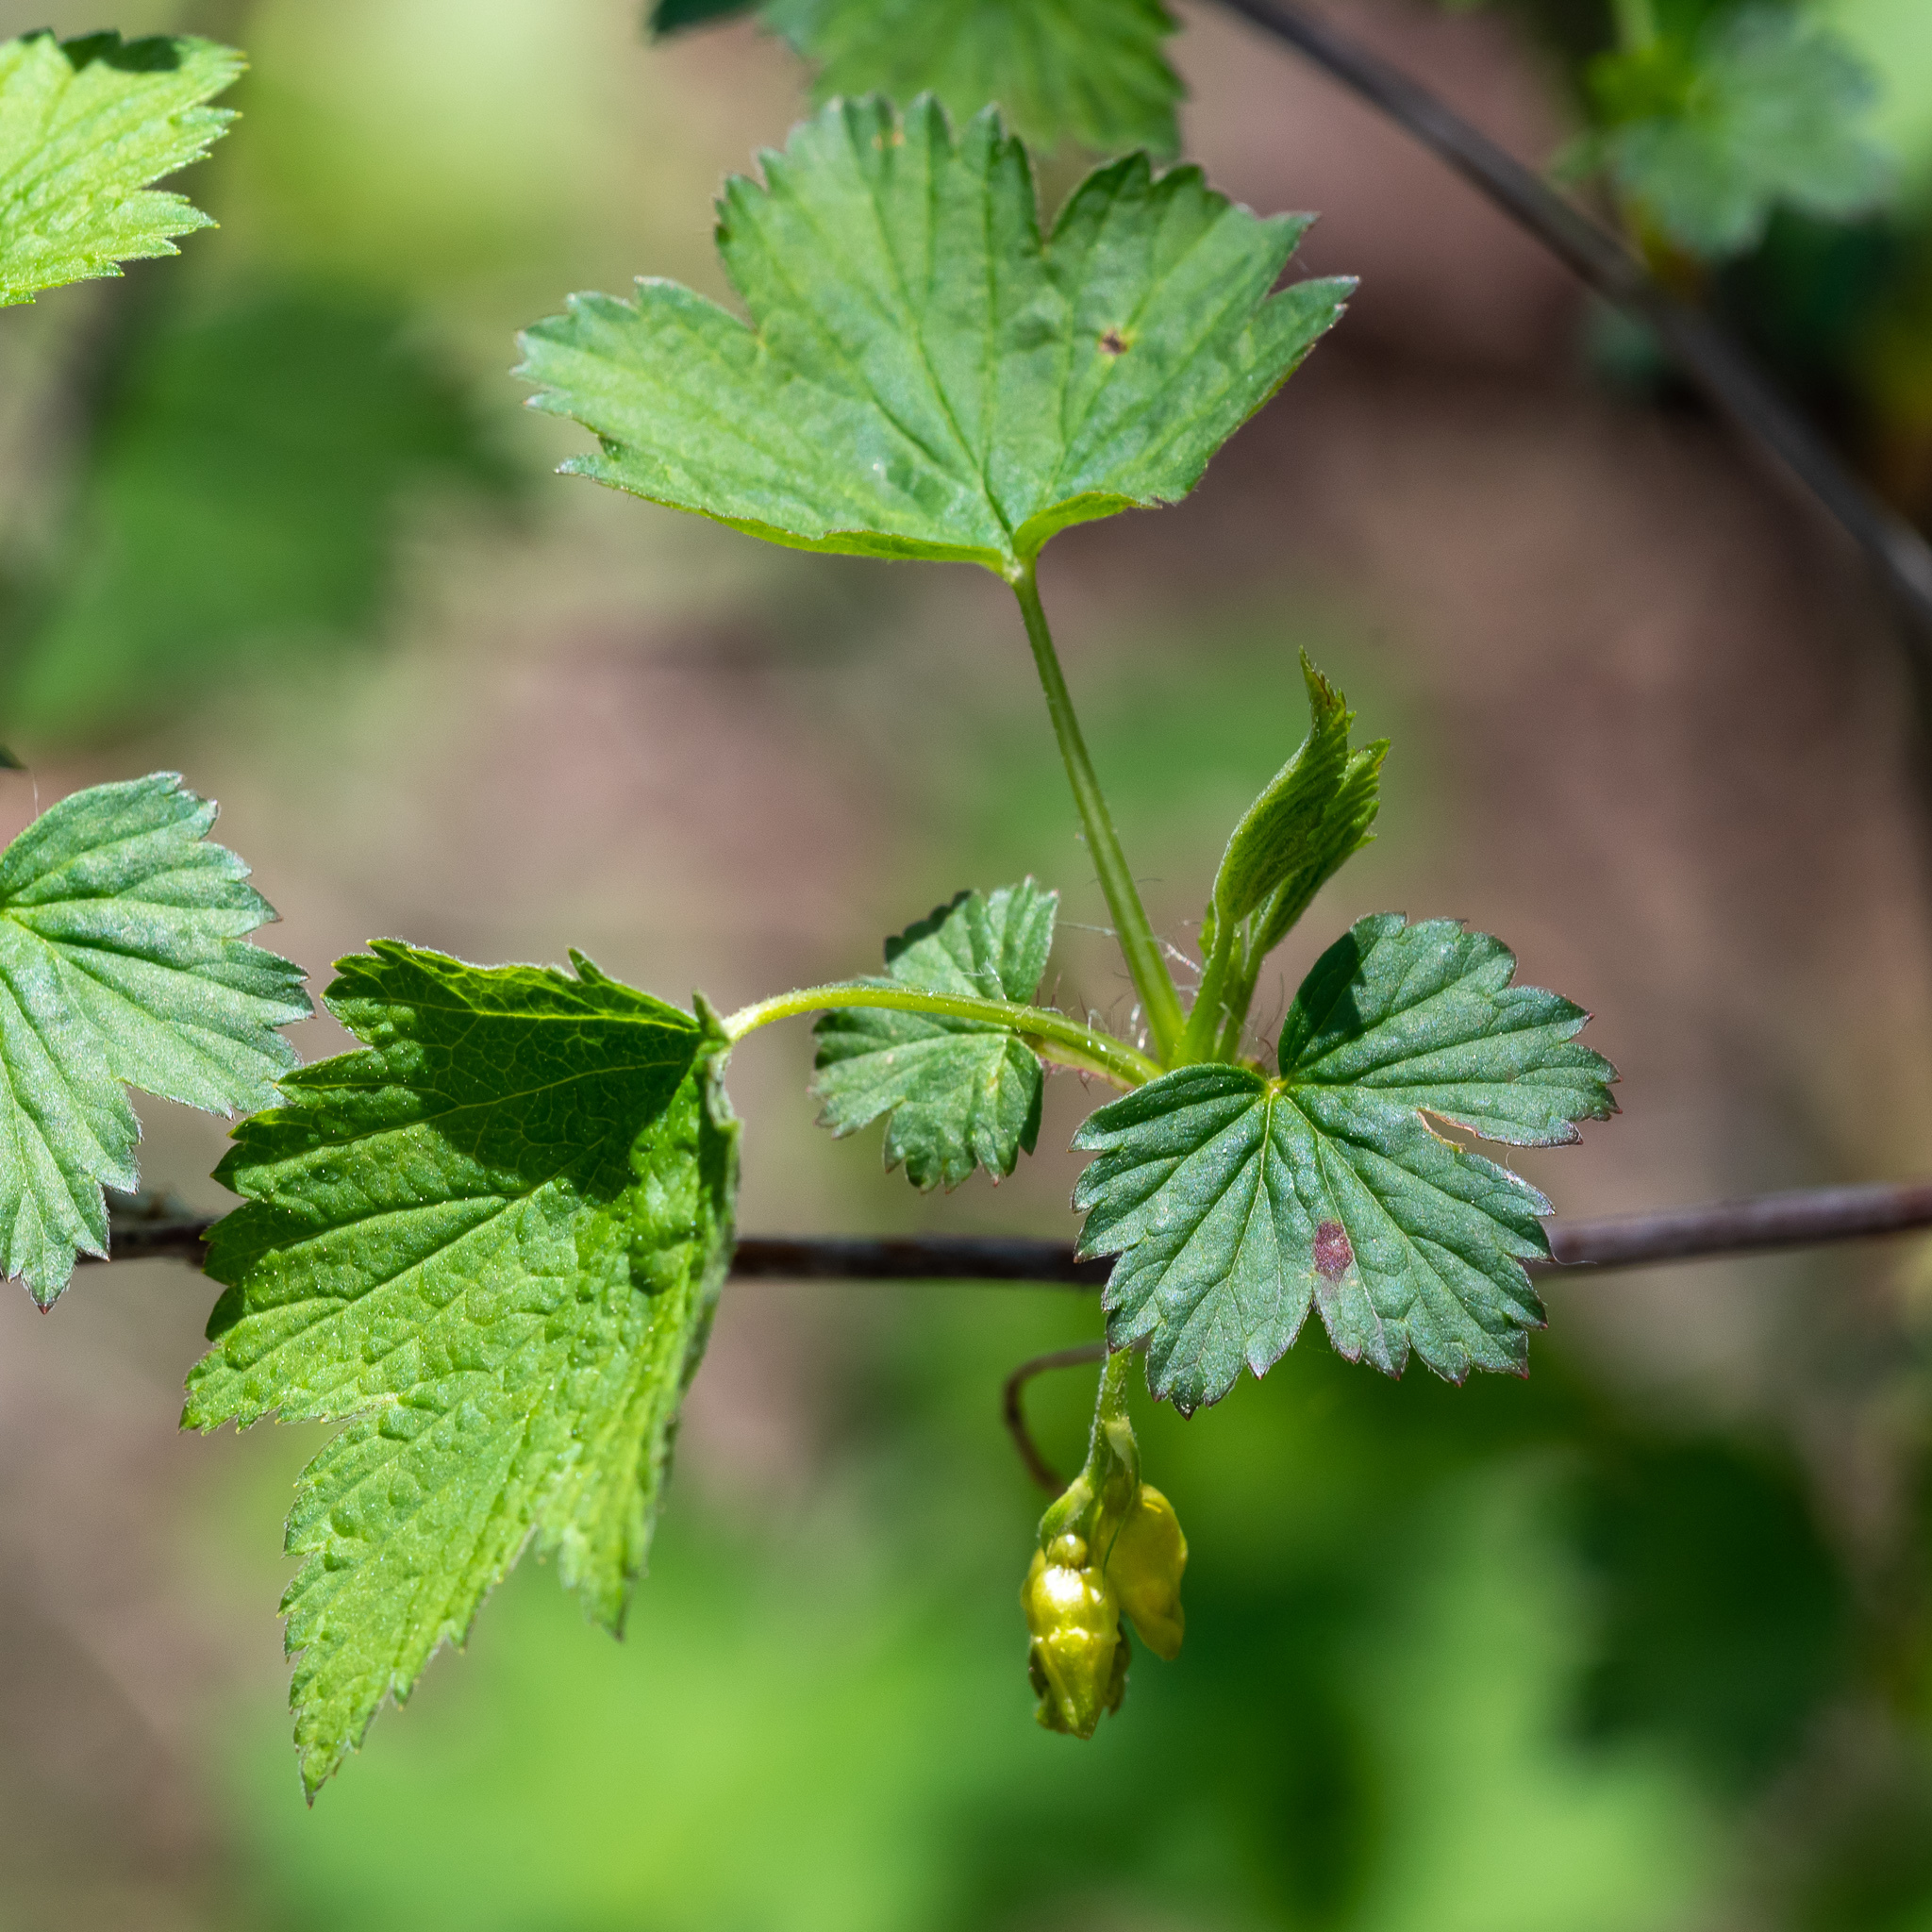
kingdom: Plantae
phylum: Tracheophyta
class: Magnoliopsida
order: Saxifragales
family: Grossulariaceae
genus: Ribes
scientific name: Ribes americanum
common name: American black currant
